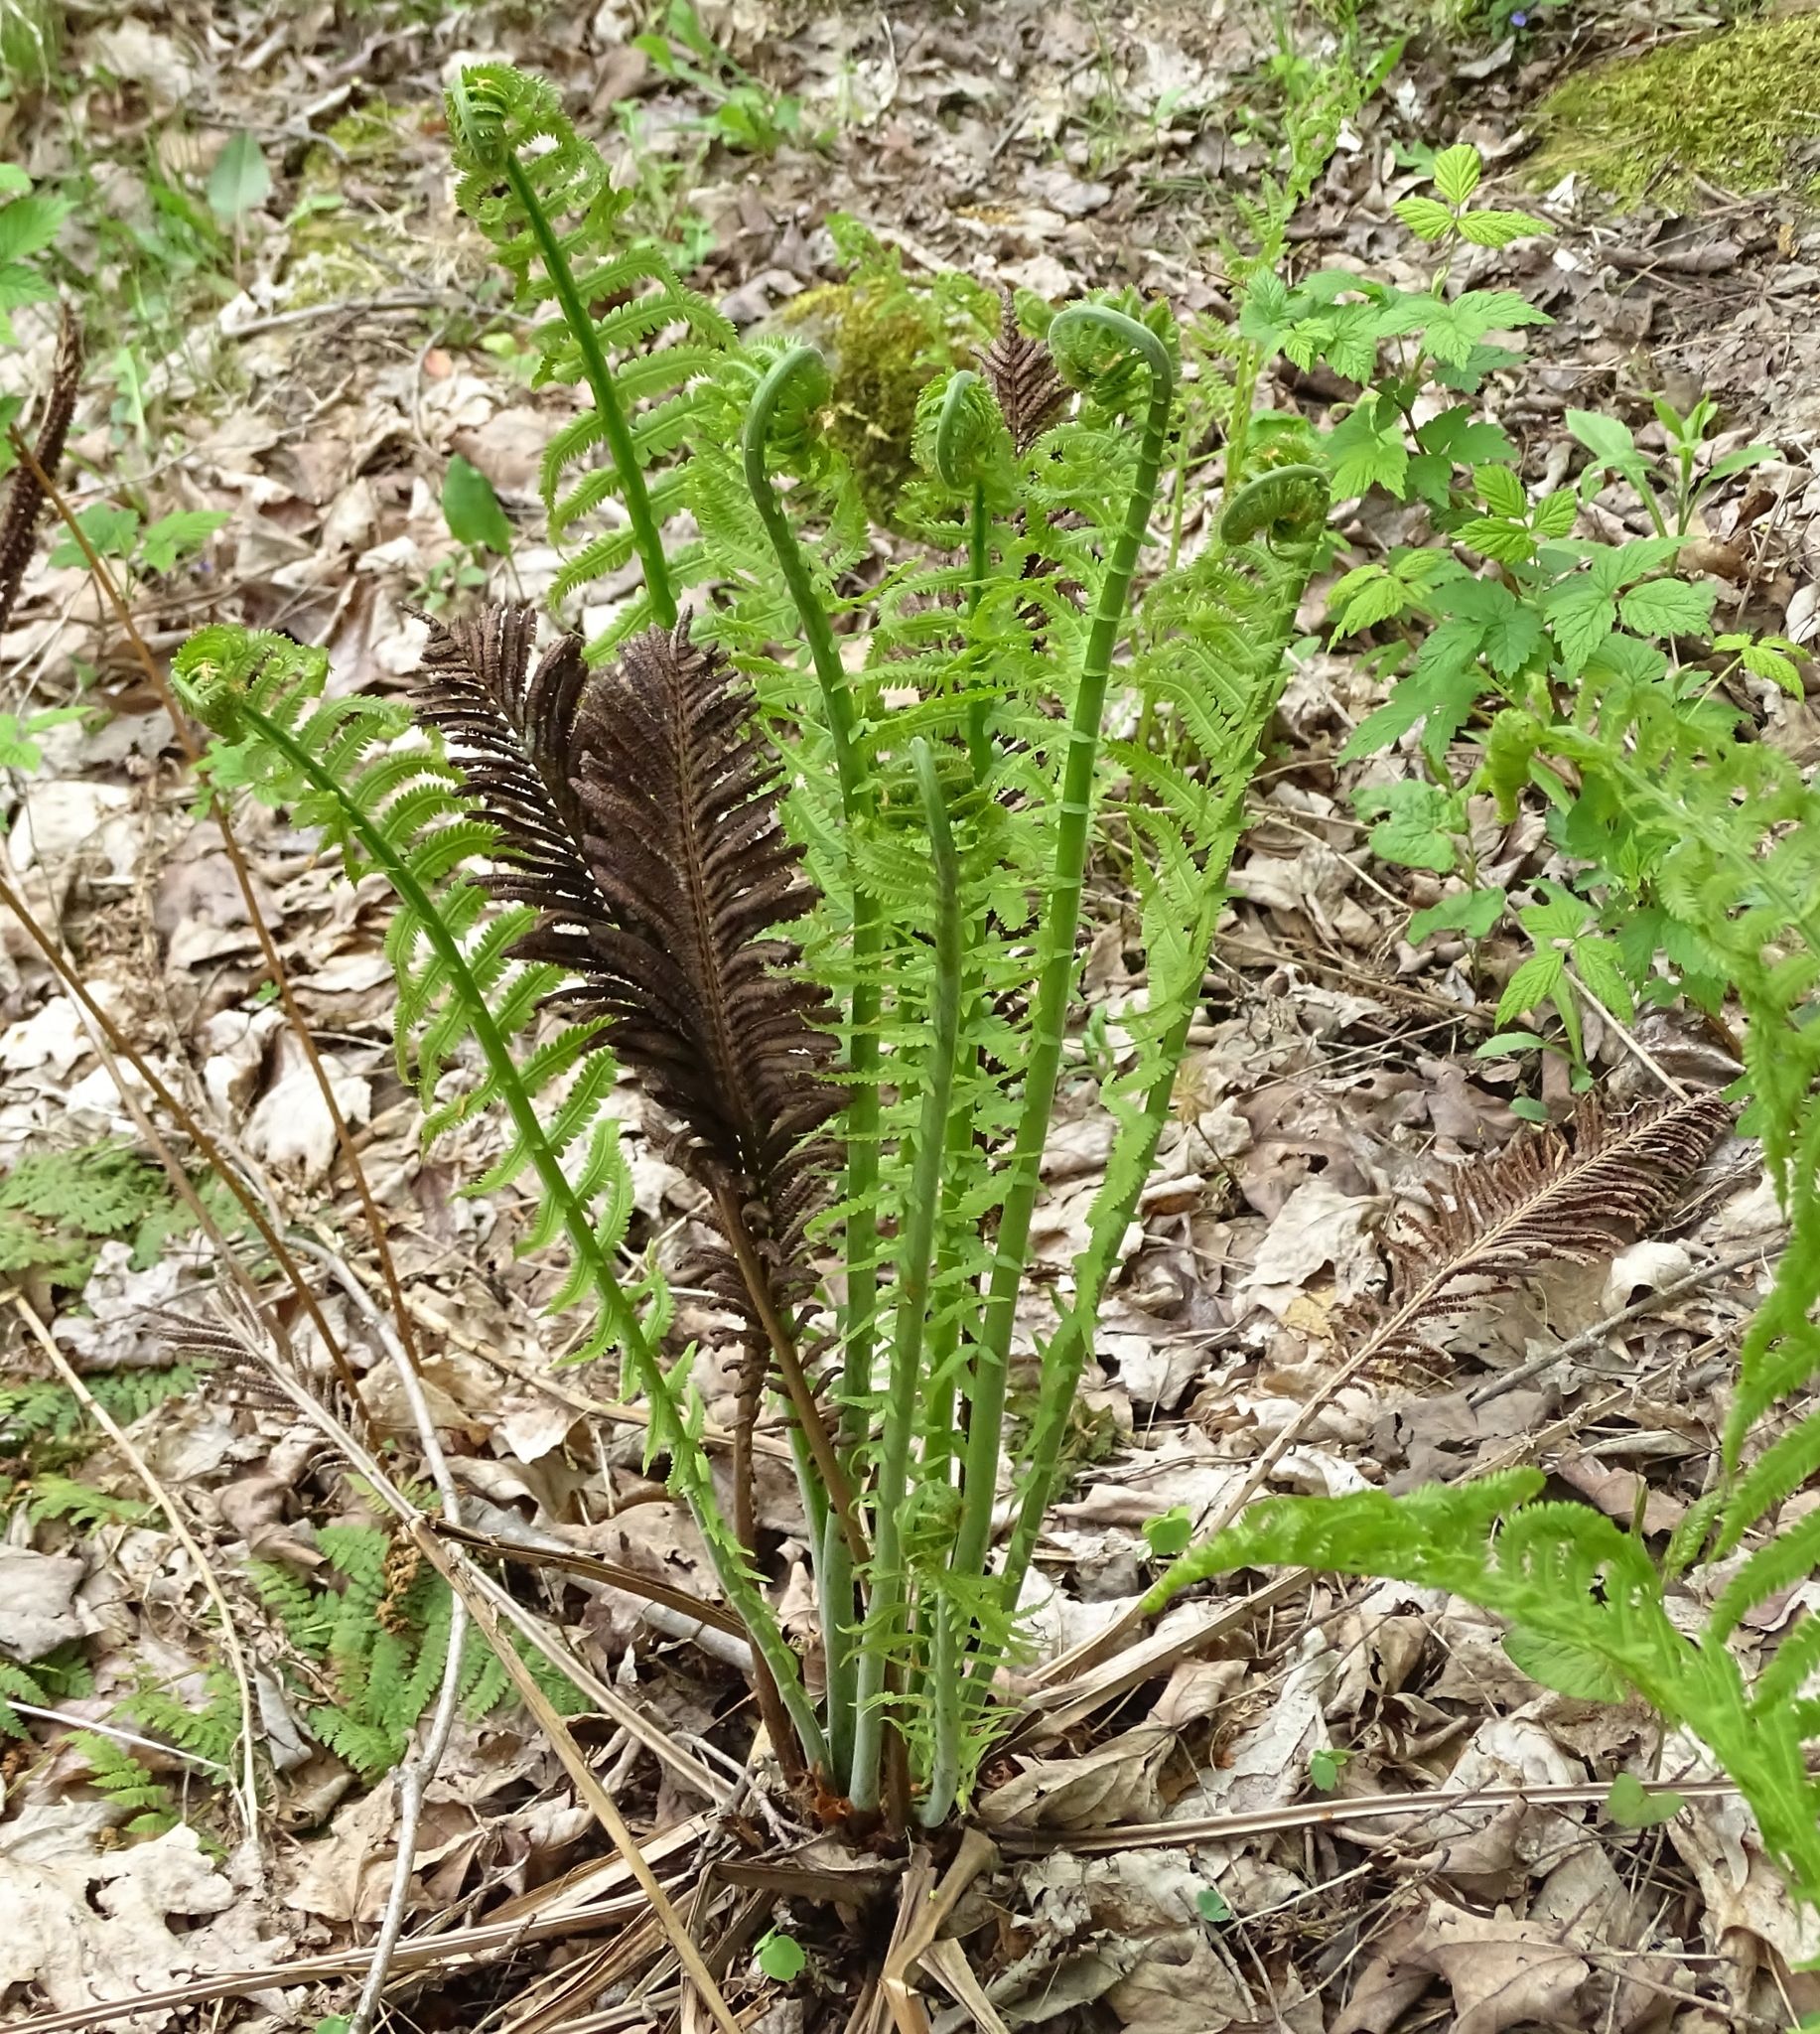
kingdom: Plantae
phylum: Tracheophyta
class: Polypodiopsida
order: Polypodiales
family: Onocleaceae
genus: Matteuccia
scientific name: Matteuccia struthiopteris
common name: Ostrich fern
